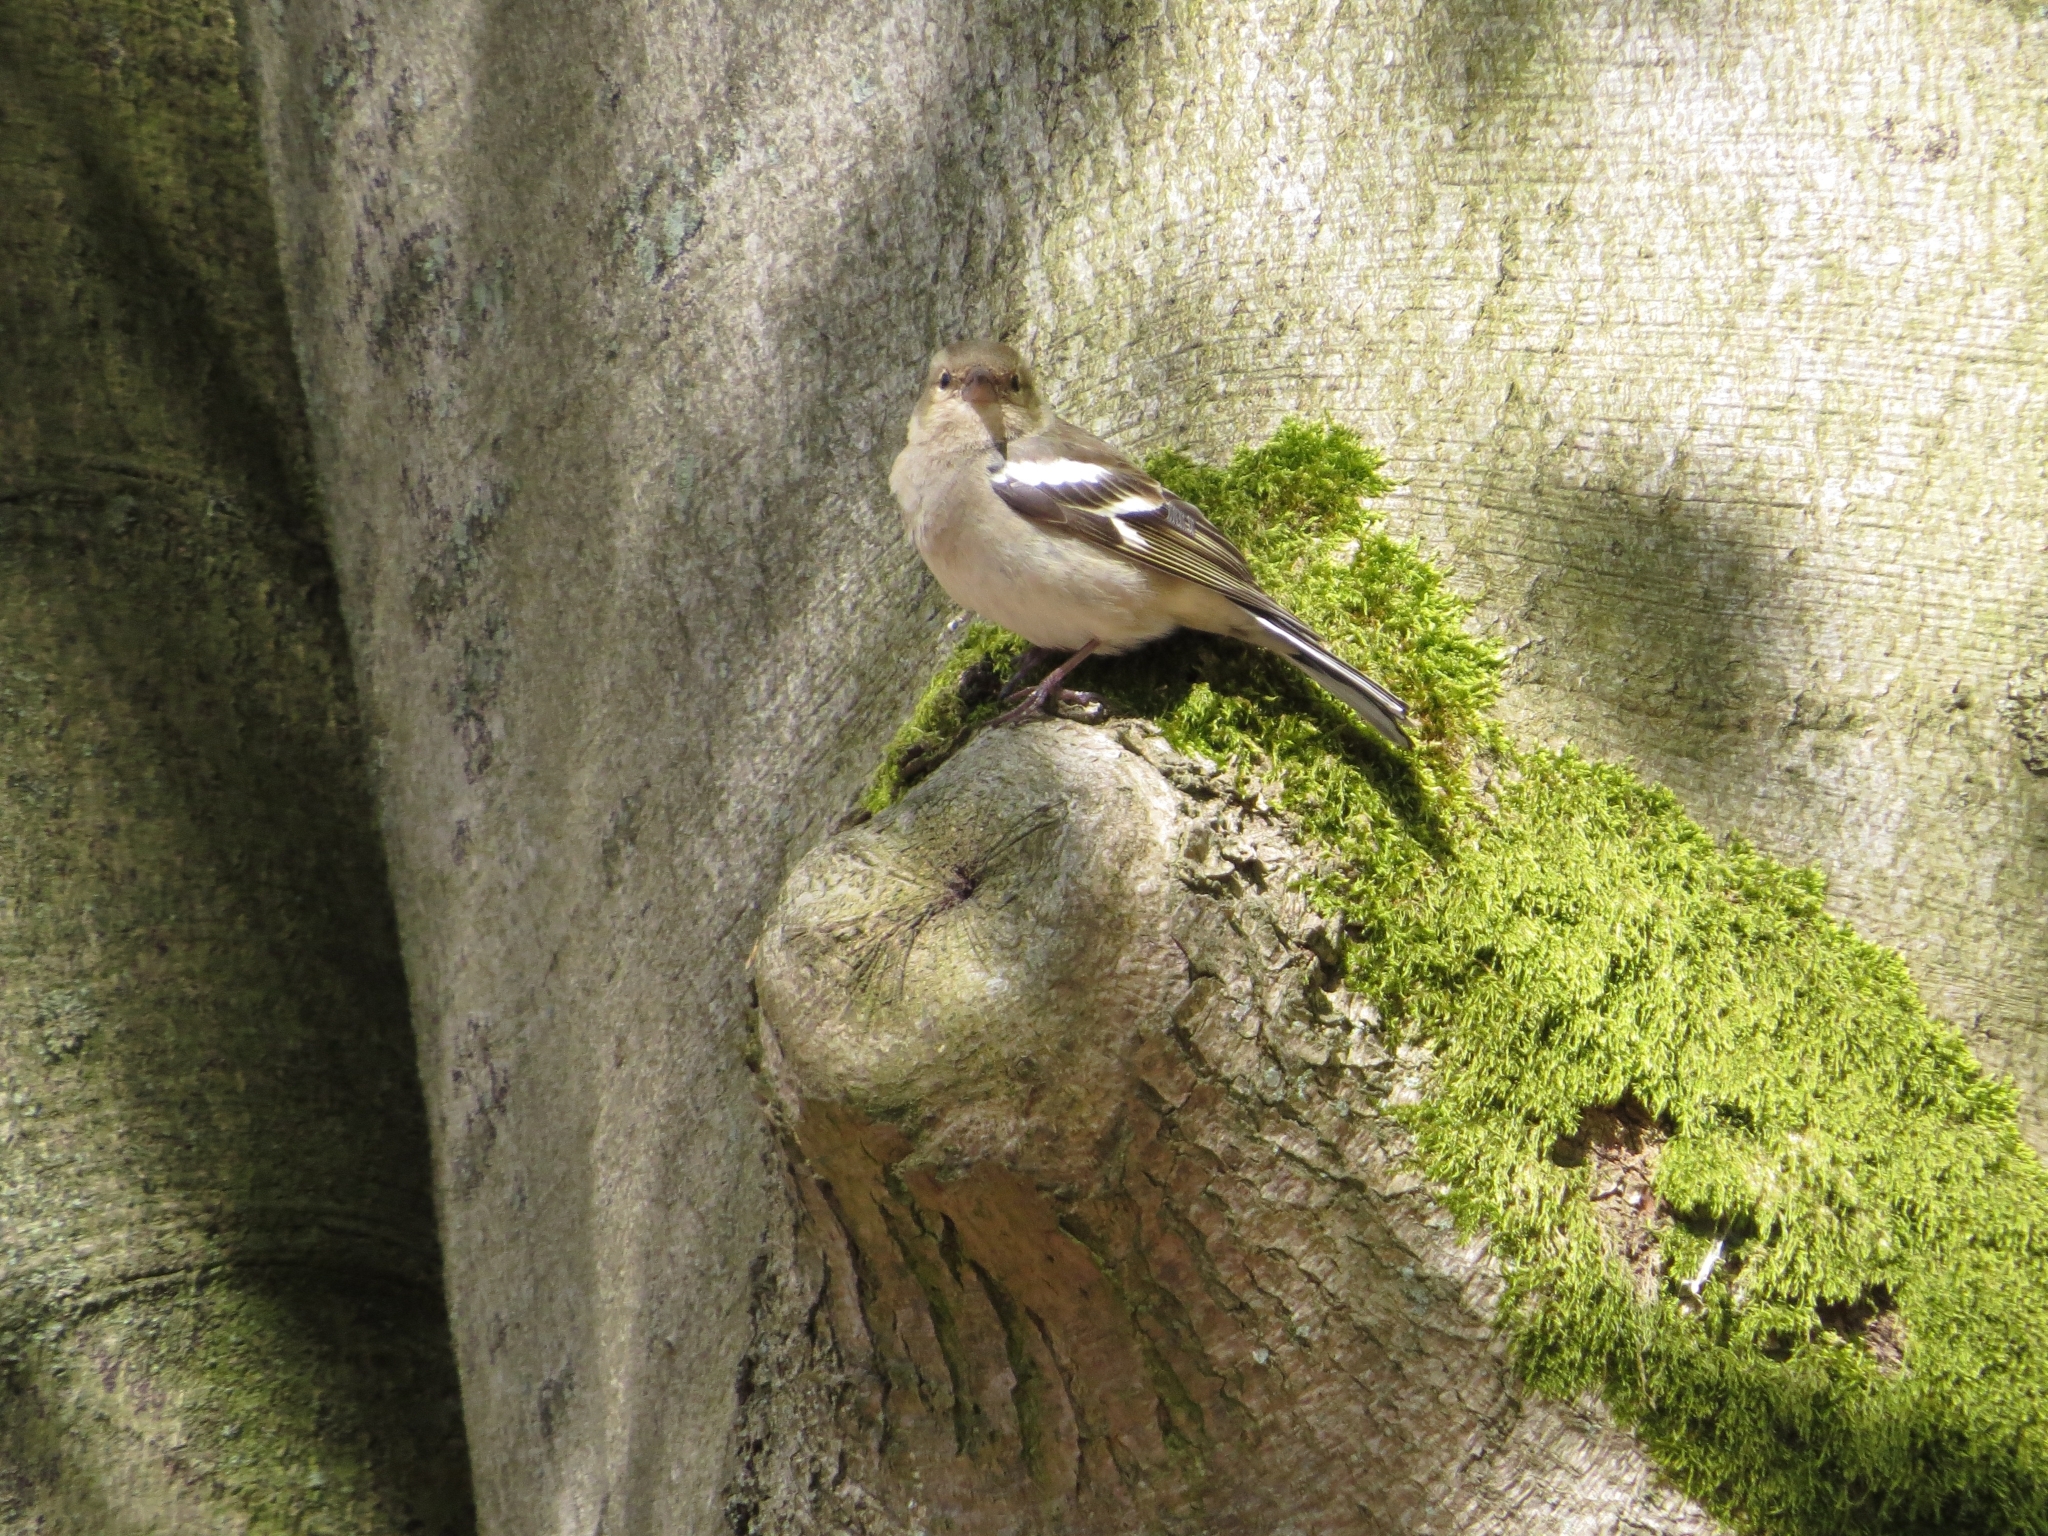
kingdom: Animalia
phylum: Chordata
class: Aves
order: Passeriformes
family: Fringillidae
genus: Fringilla
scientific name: Fringilla coelebs
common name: Common chaffinch
